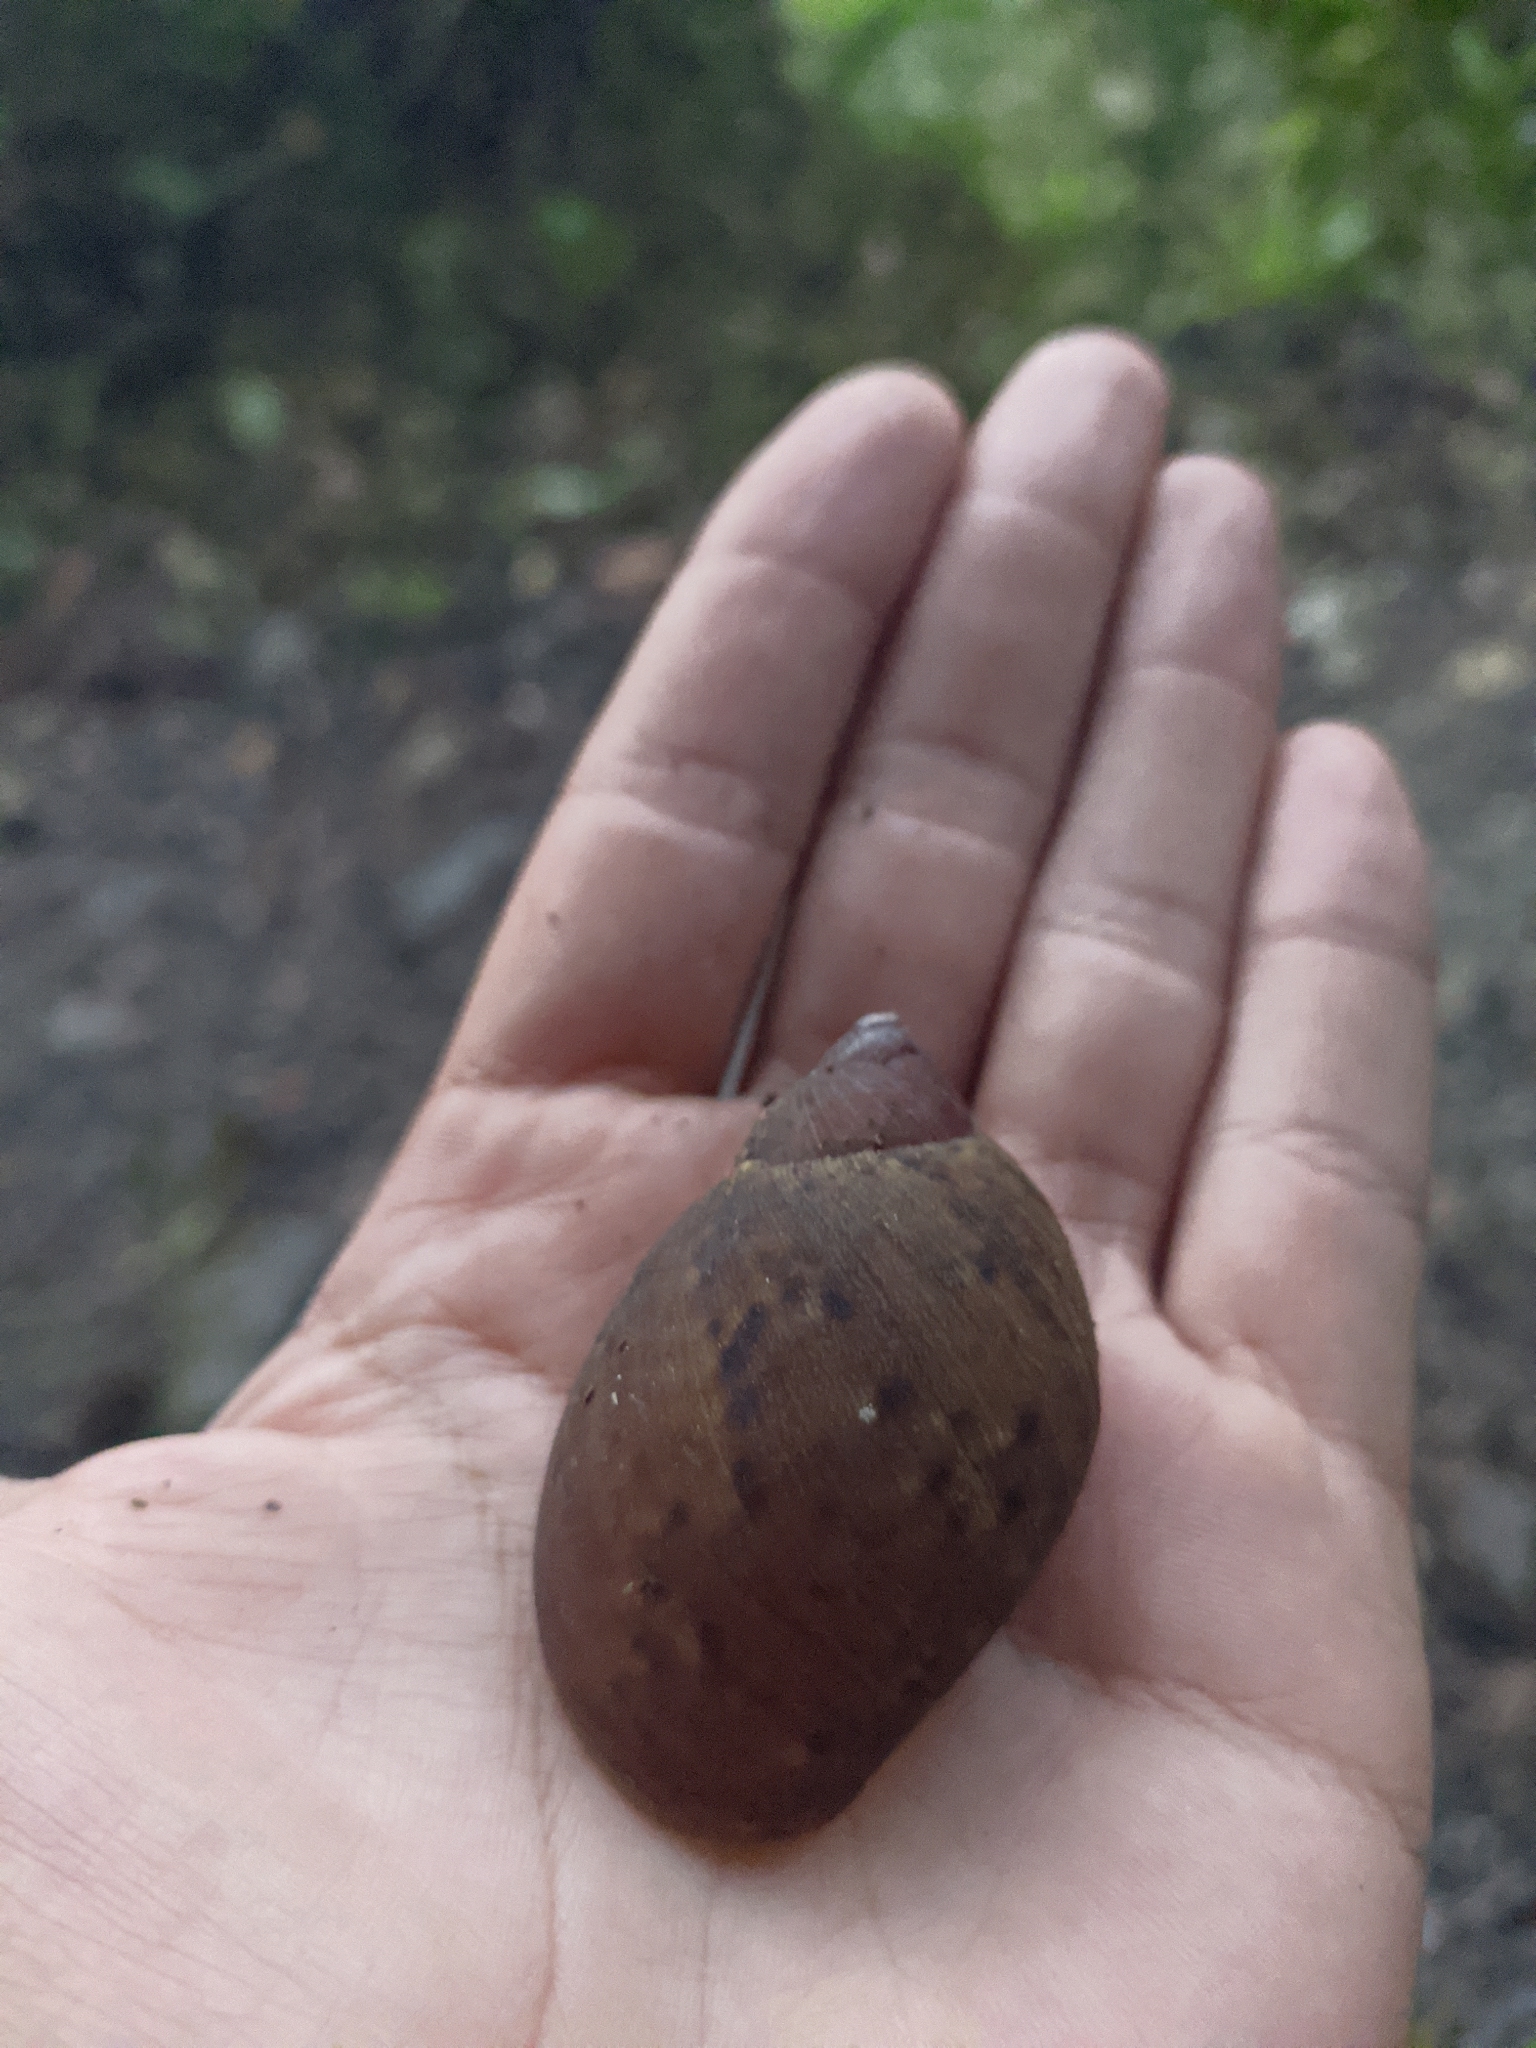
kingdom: Animalia
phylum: Mollusca
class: Gastropoda
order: Stylommatophora
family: Amphibulimidae
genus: Plekocheilus
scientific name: Plekocheilus coloratus
